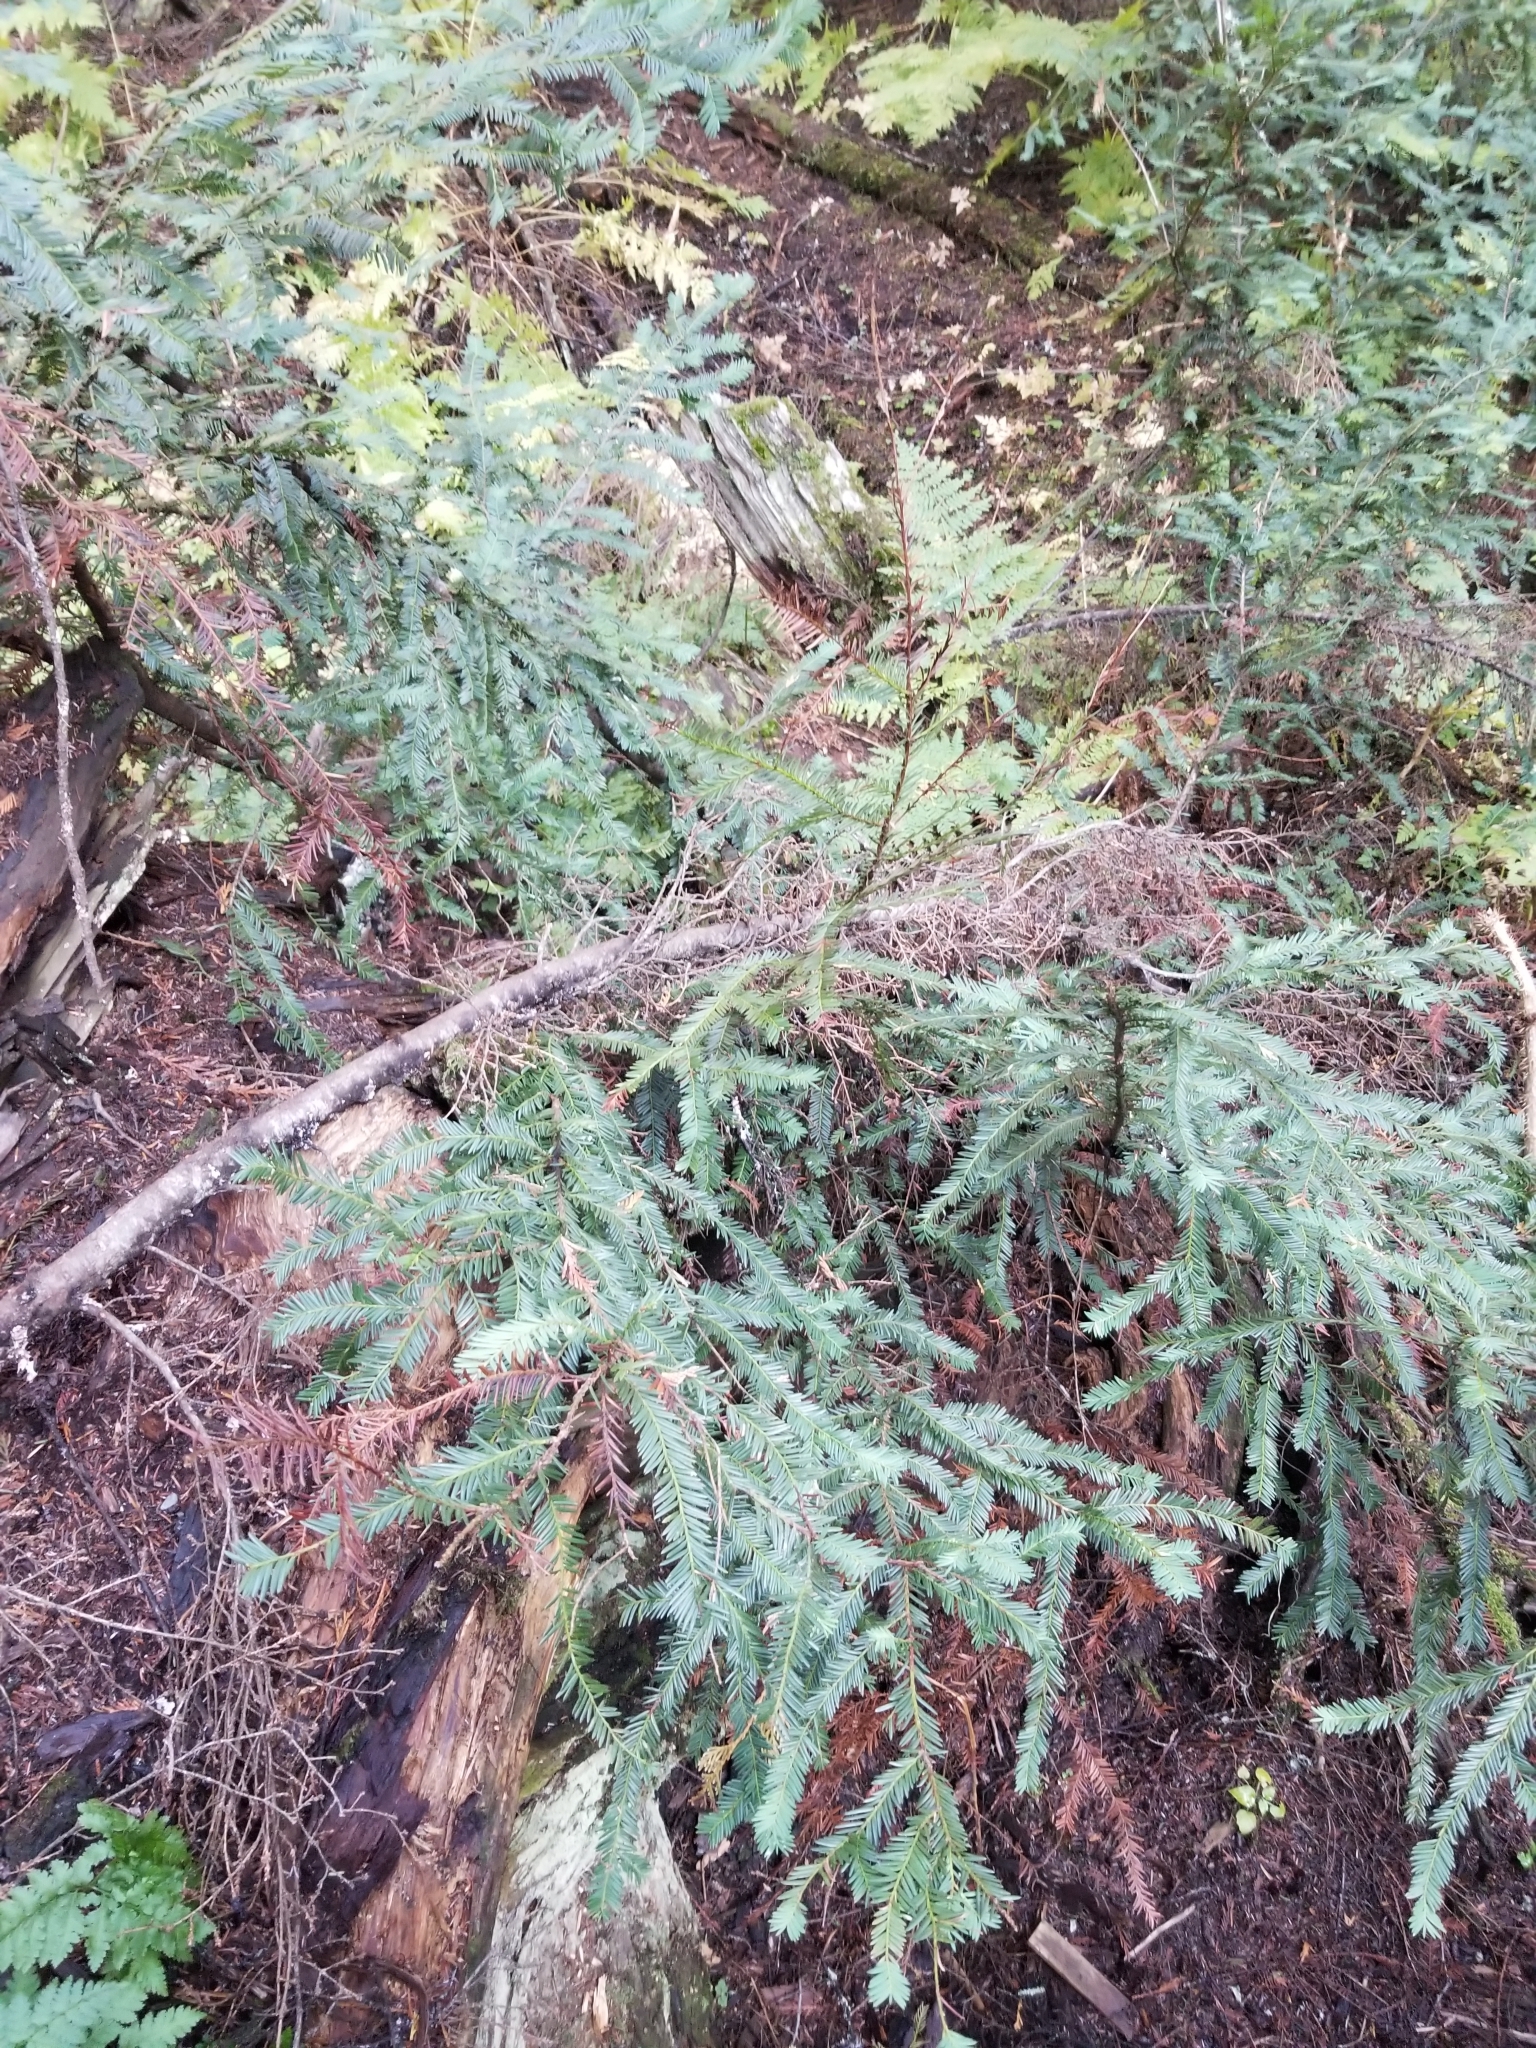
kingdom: Plantae
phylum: Tracheophyta
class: Pinopsida
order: Pinales
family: Taxaceae
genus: Taxus
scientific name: Taxus brevifolia
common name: Pacific yew
